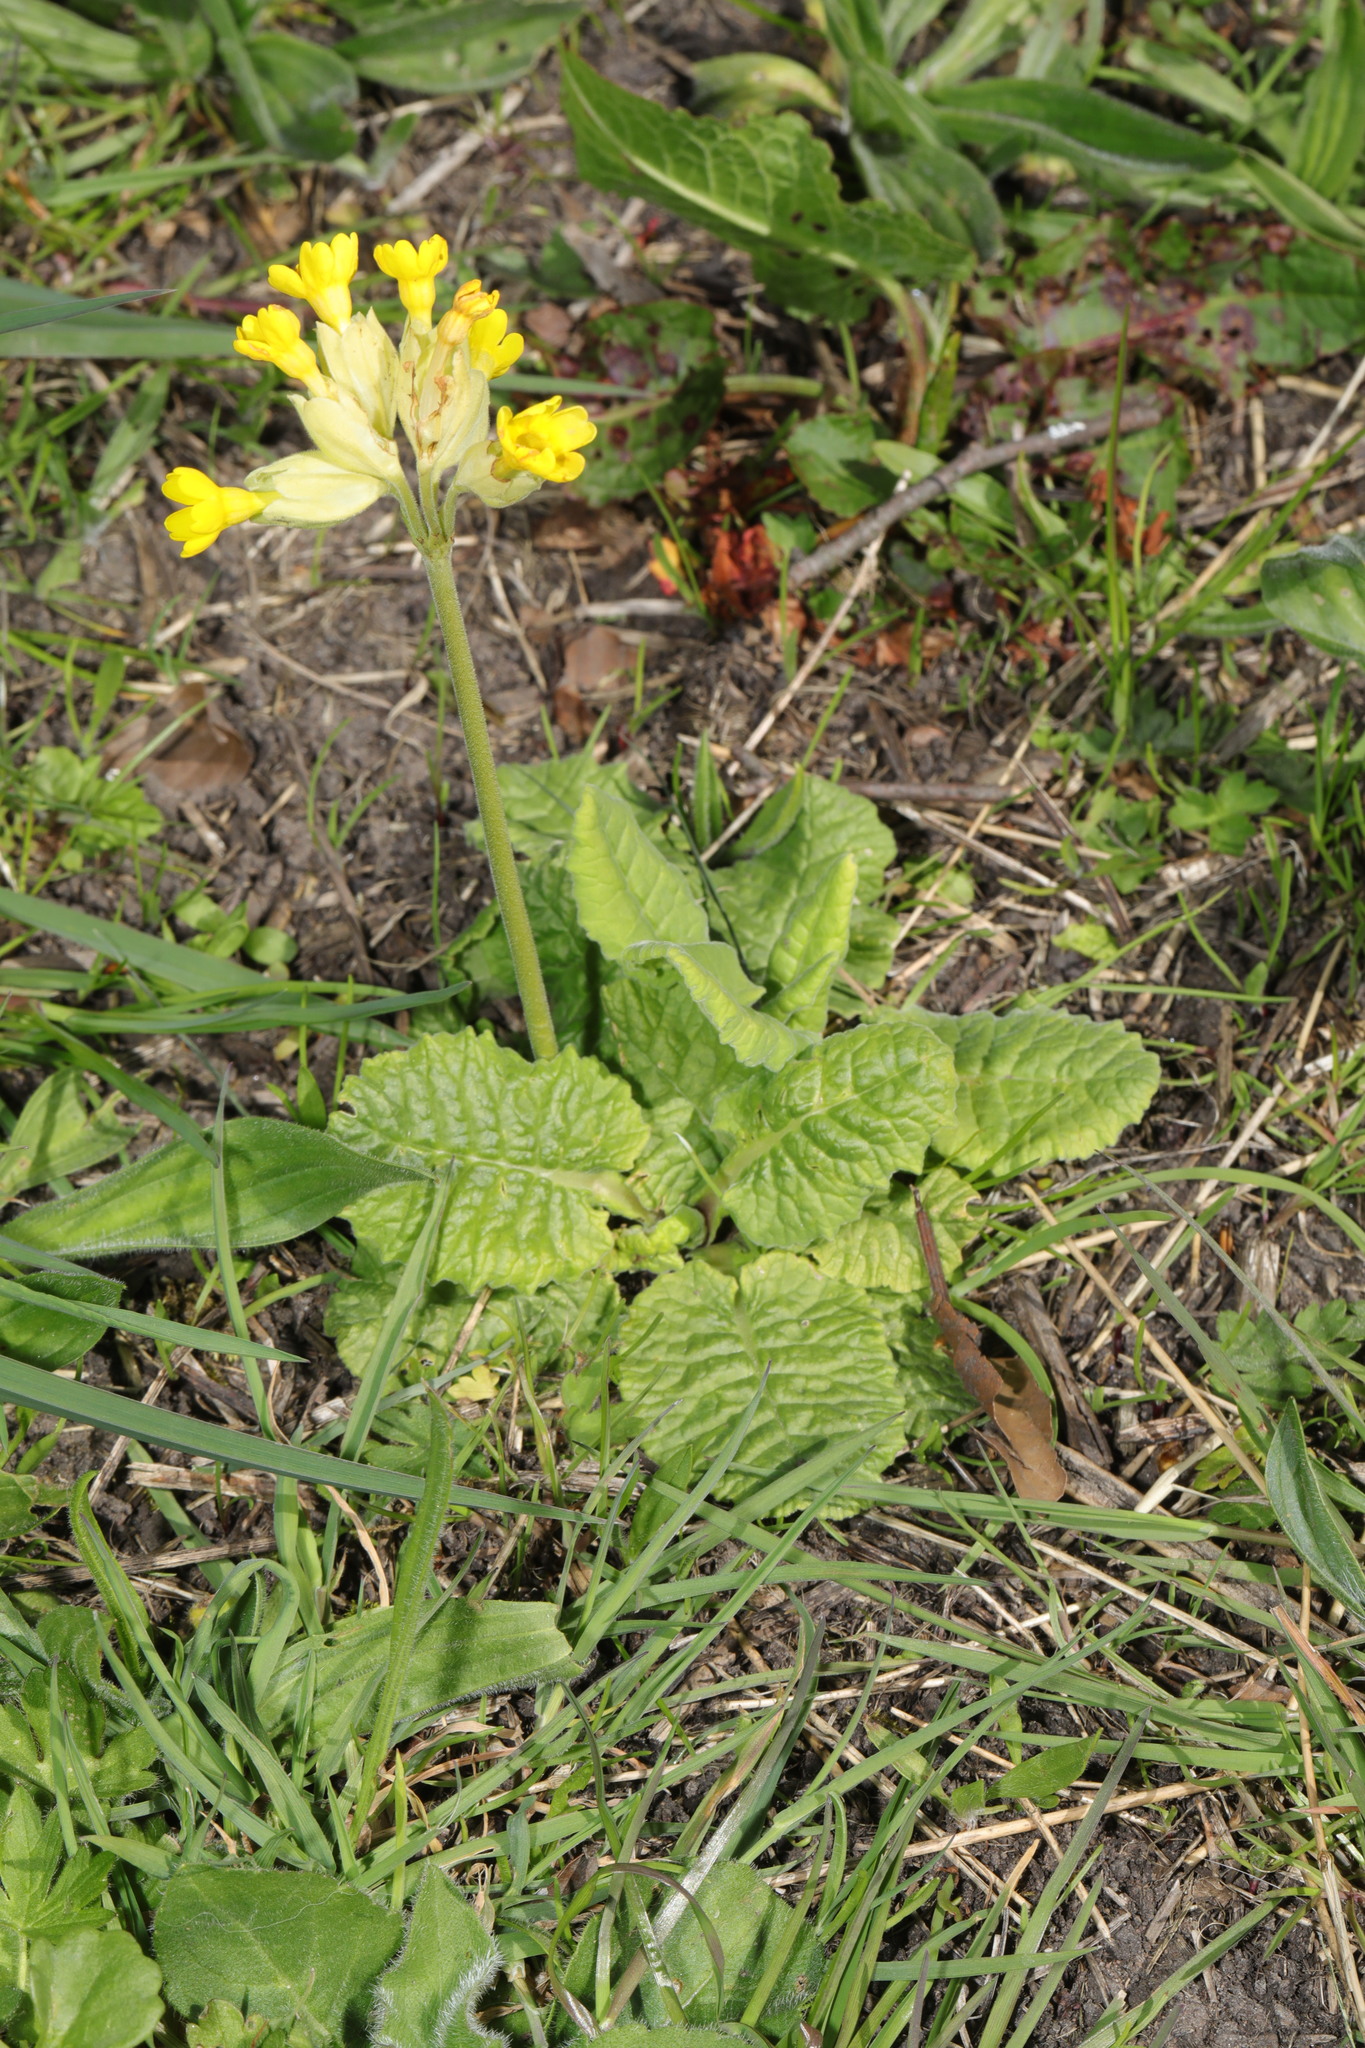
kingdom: Plantae
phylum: Tracheophyta
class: Magnoliopsida
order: Ericales
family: Primulaceae
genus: Primula
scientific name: Primula veris
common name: Cowslip
